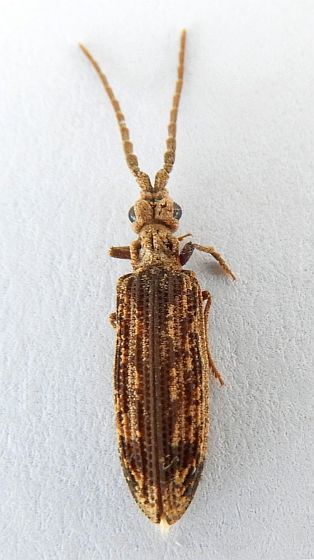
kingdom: Animalia
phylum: Arthropoda
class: Insecta
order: Coleoptera
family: Cupedidae
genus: Prolixocupes
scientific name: Prolixocupes lobiceps
